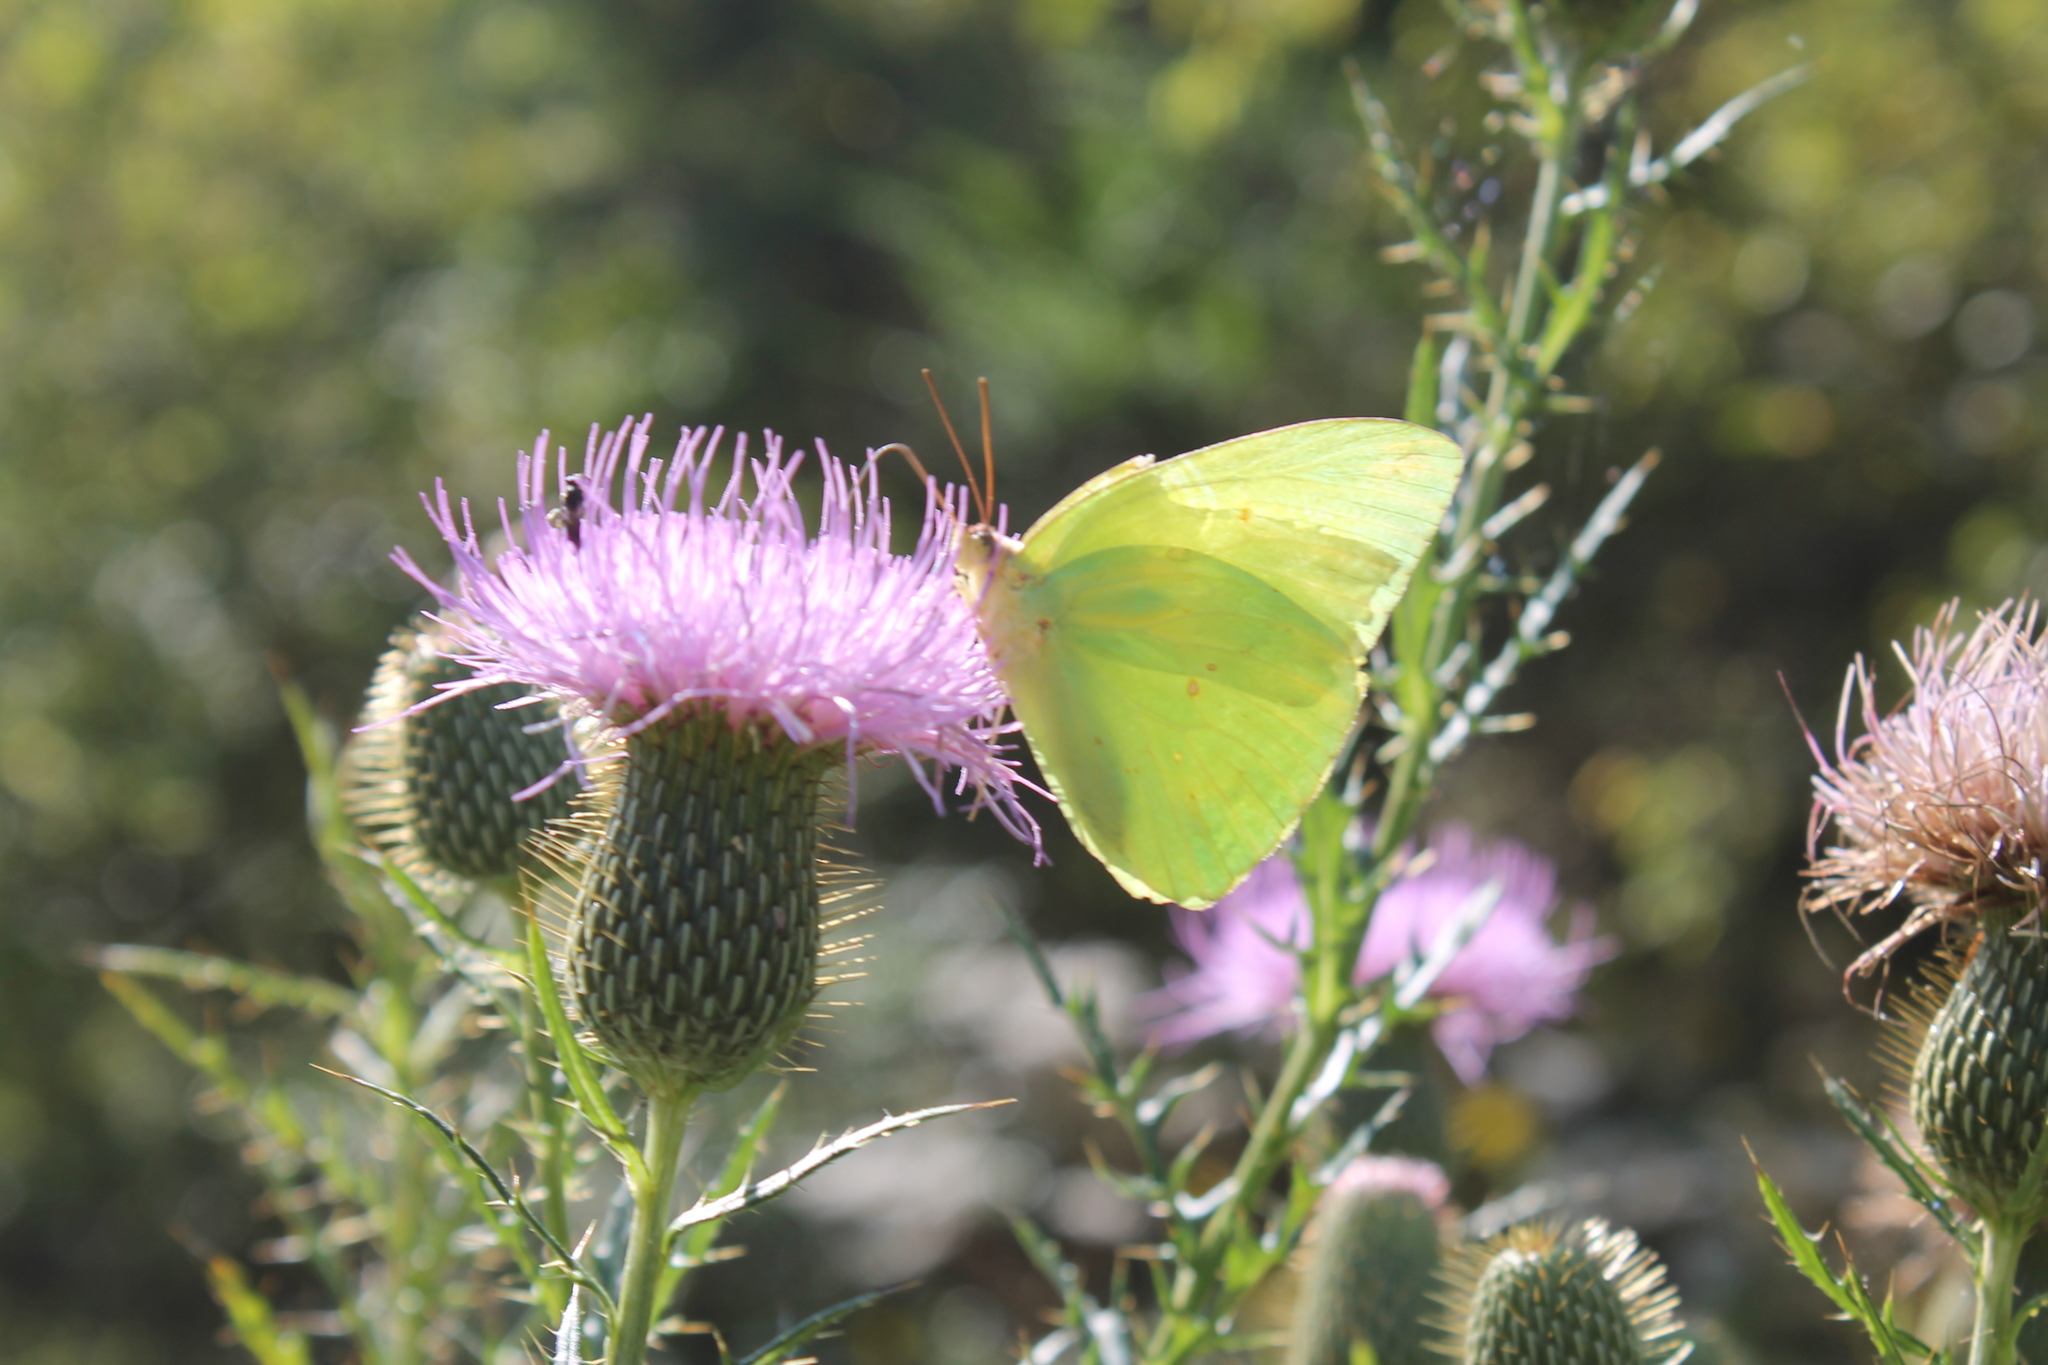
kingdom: Animalia
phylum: Arthropoda
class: Insecta
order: Lepidoptera
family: Pieridae
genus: Phoebis
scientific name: Phoebis sennae
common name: Cloudless sulphur
